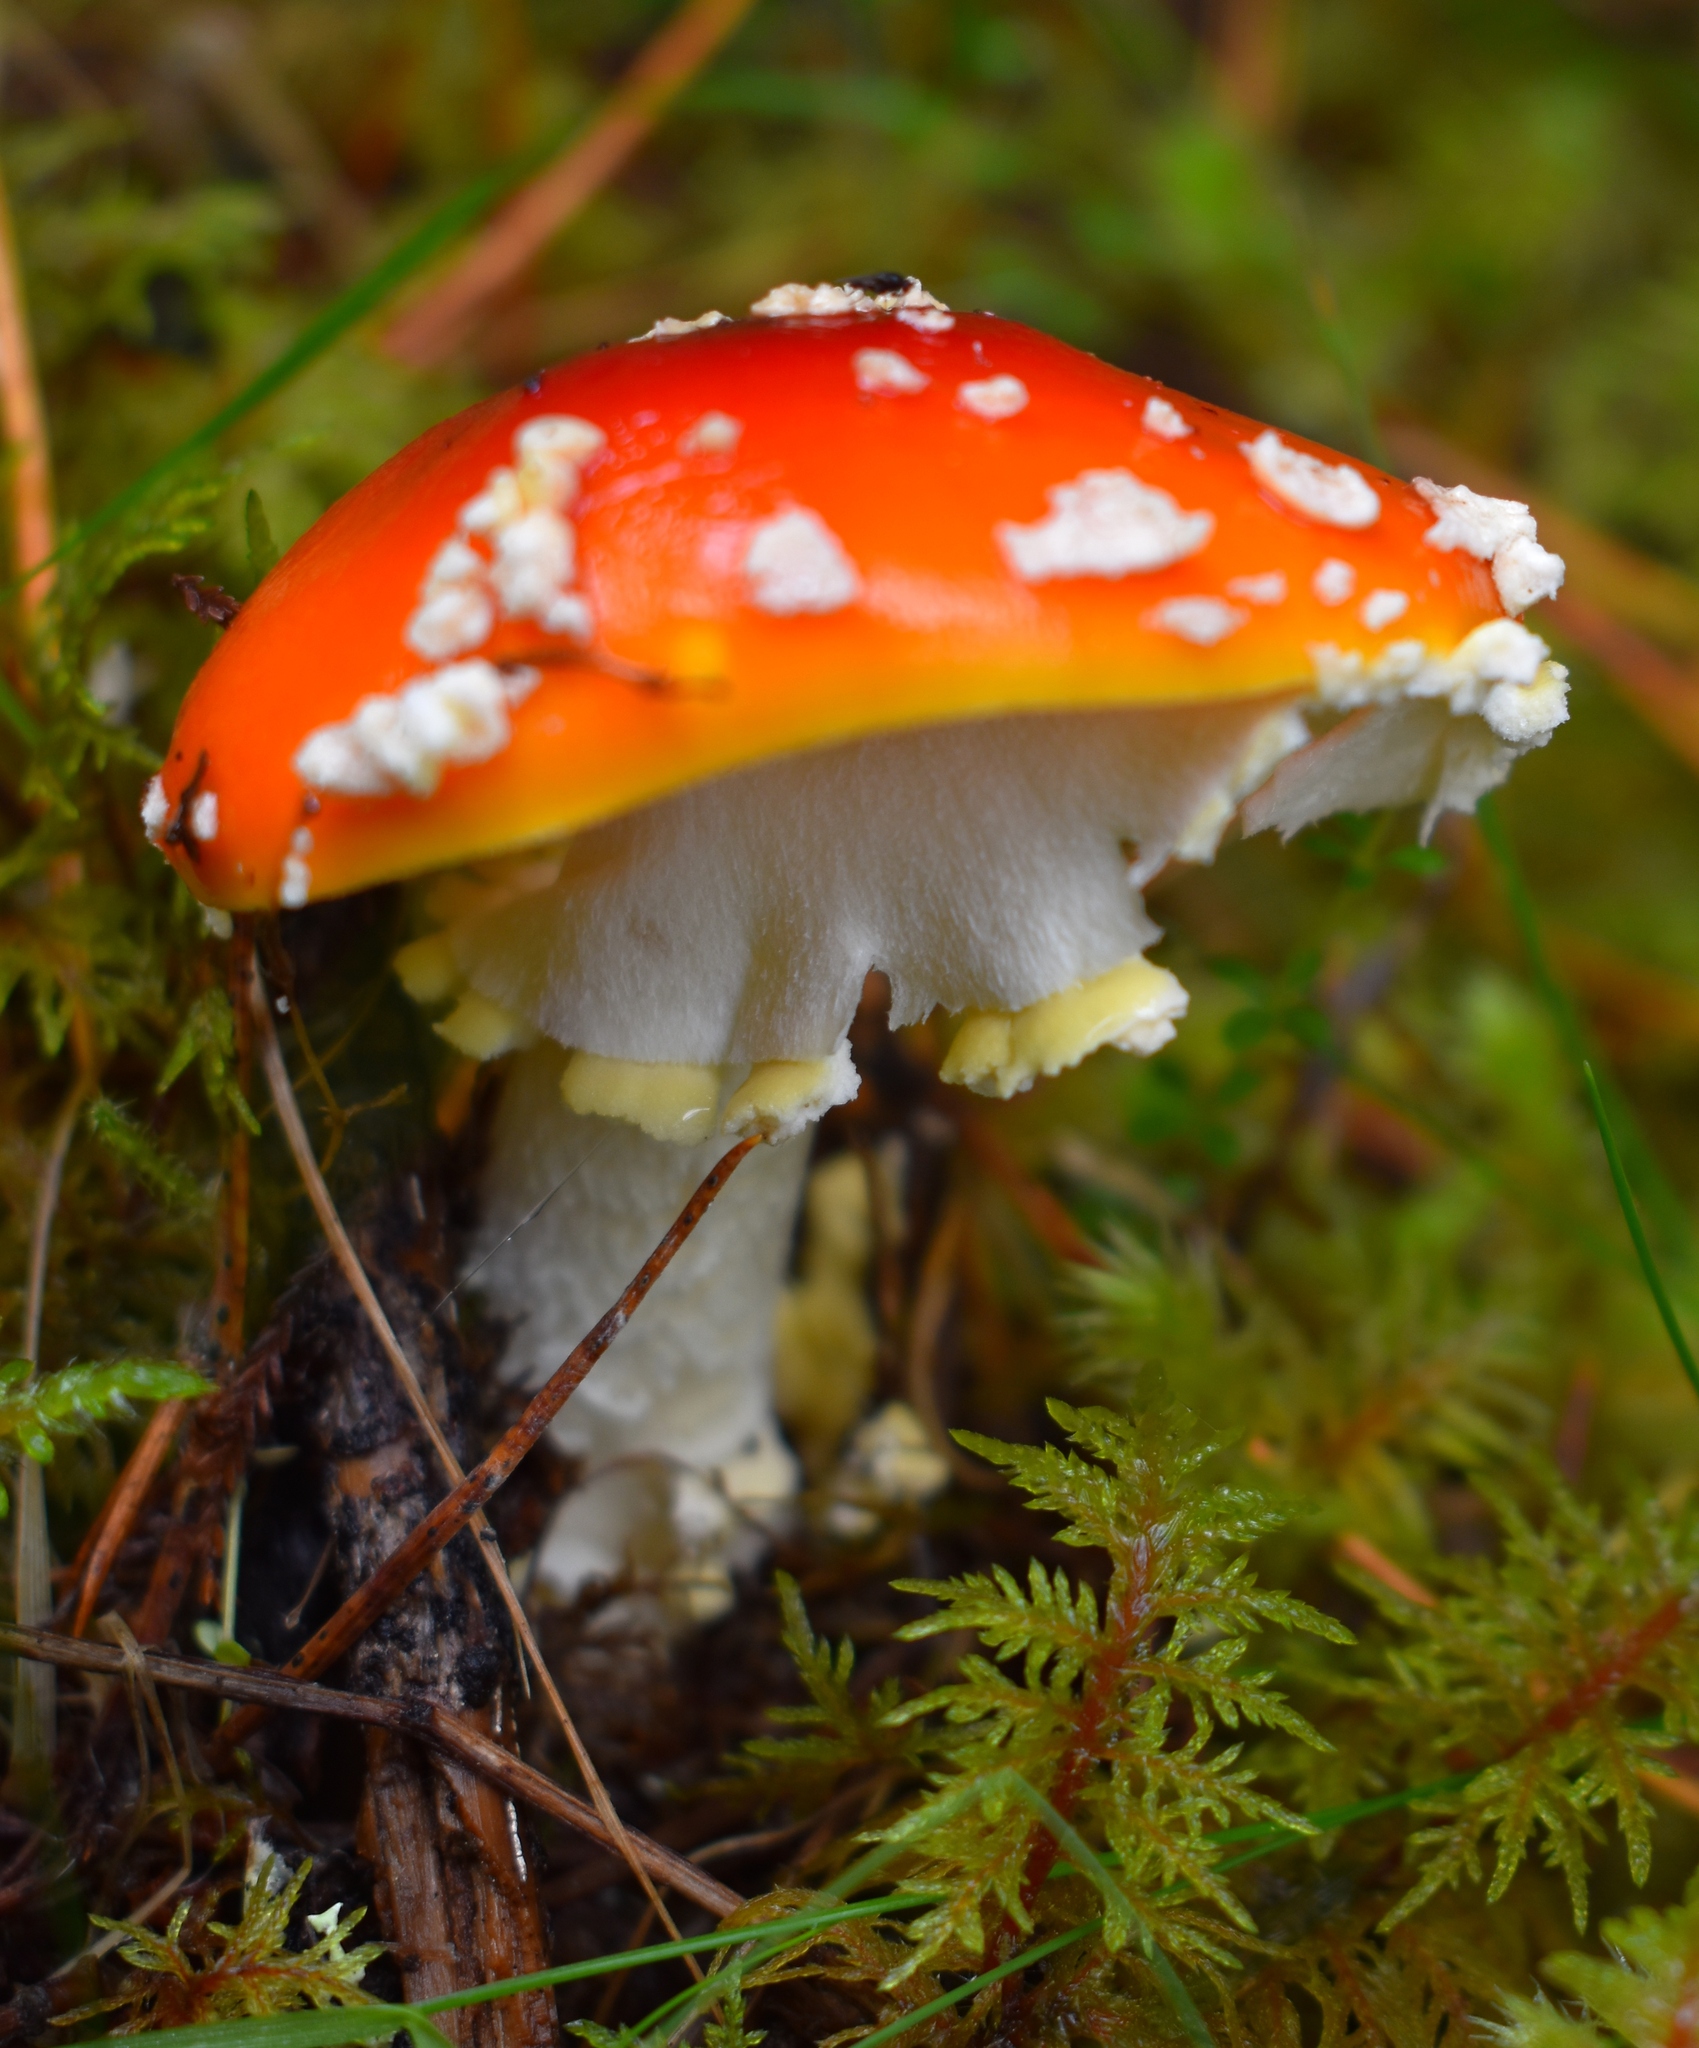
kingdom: Fungi
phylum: Basidiomycota
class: Agaricomycetes
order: Agaricales
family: Amanitaceae
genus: Amanita
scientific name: Amanita muscaria
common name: Fly agaric
